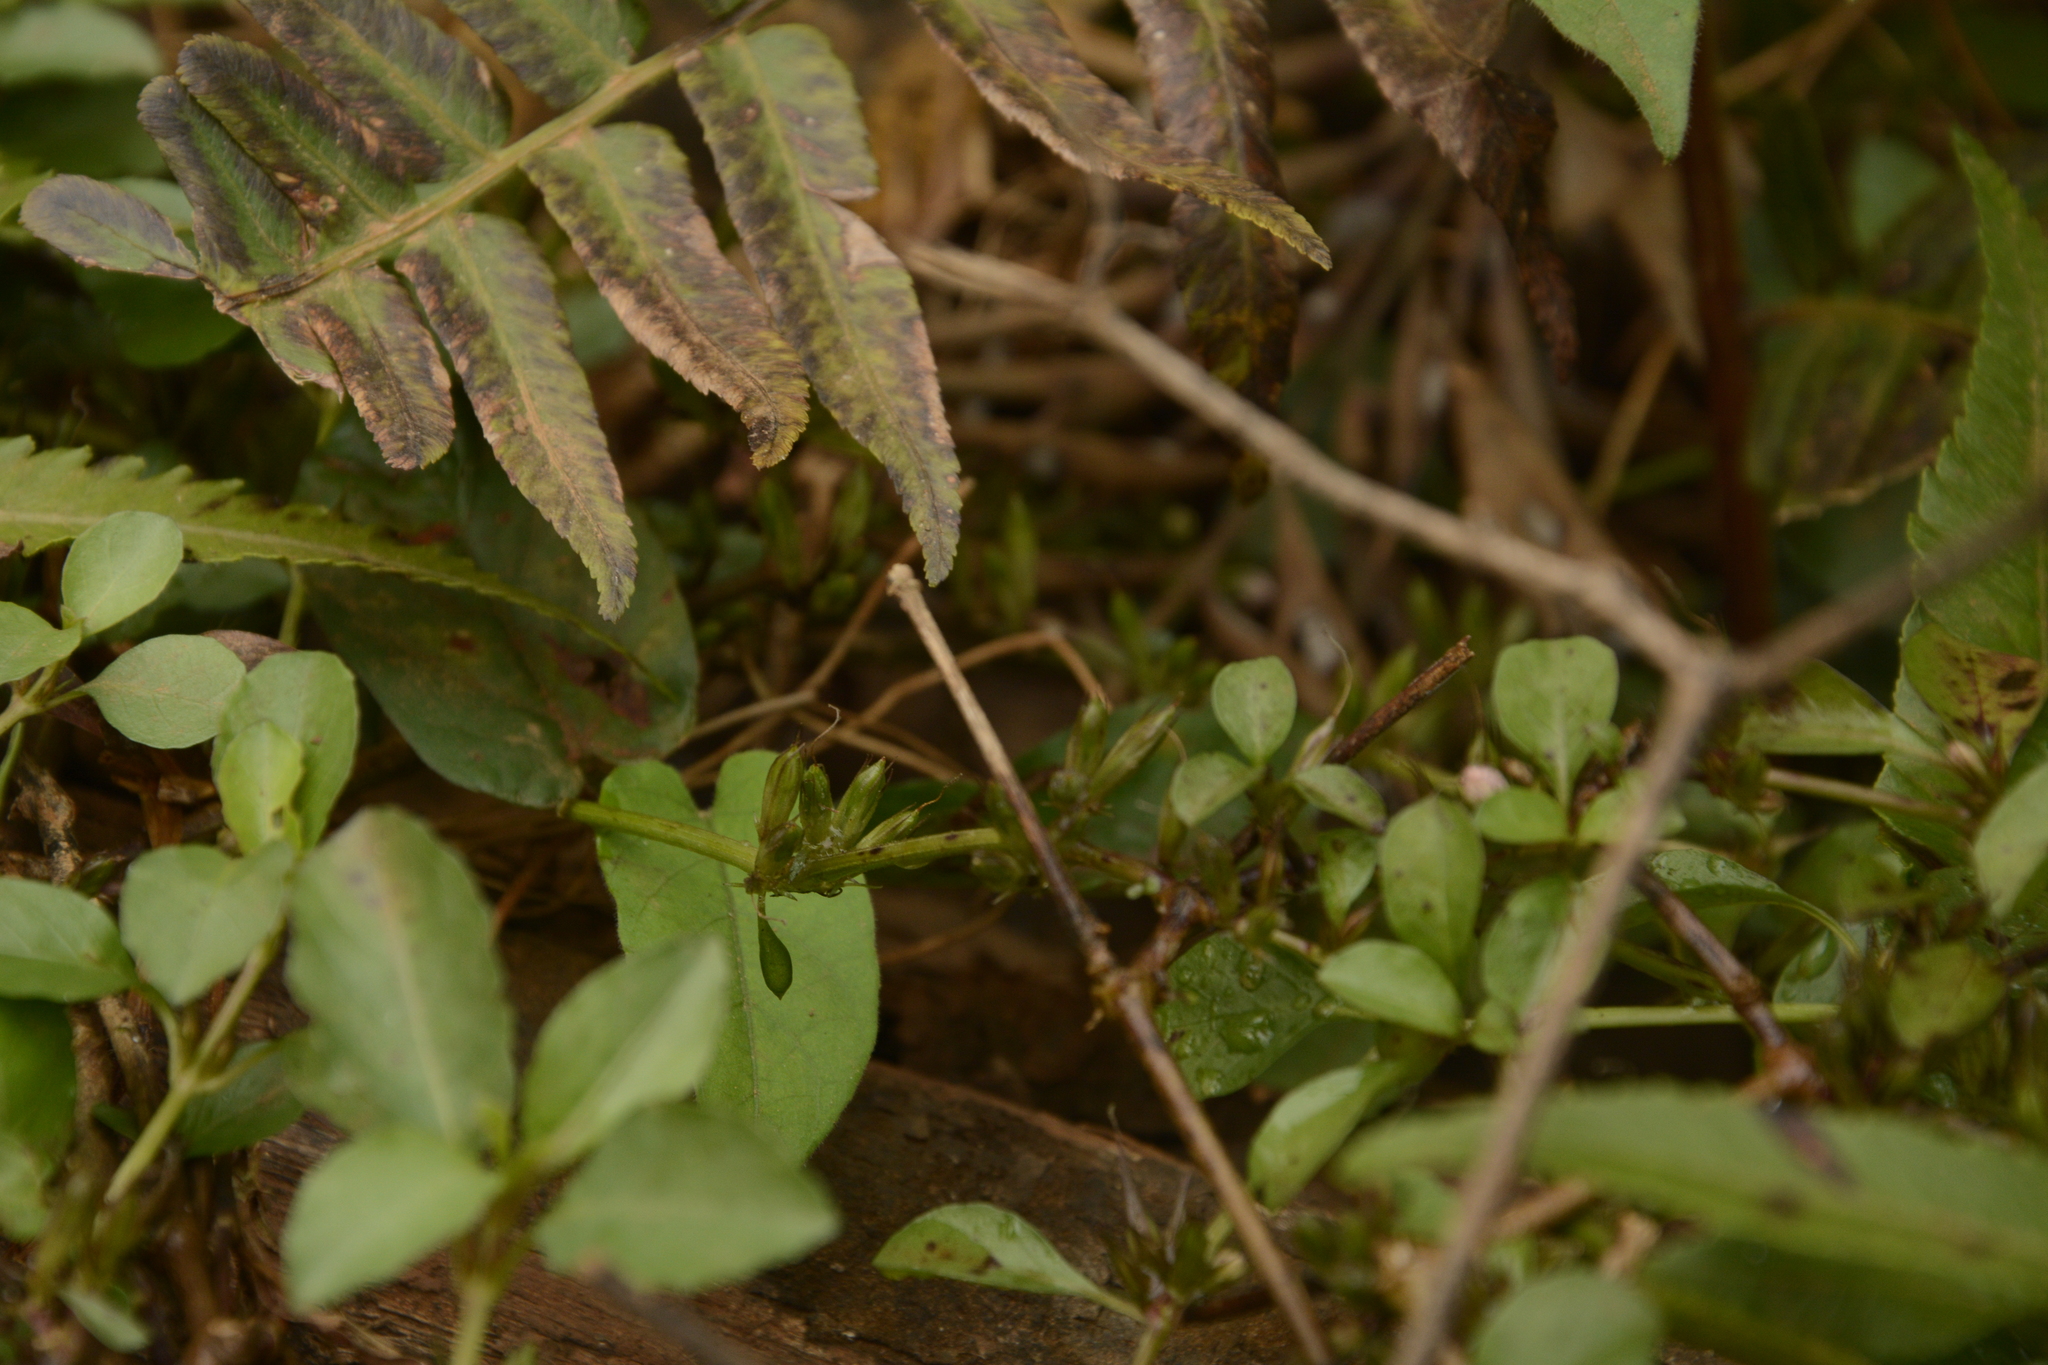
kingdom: Plantae
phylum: Tracheophyta
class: Magnoliopsida
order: Lamiales
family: Acanthaceae
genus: Hygrophila
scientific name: Hygrophila erecta
